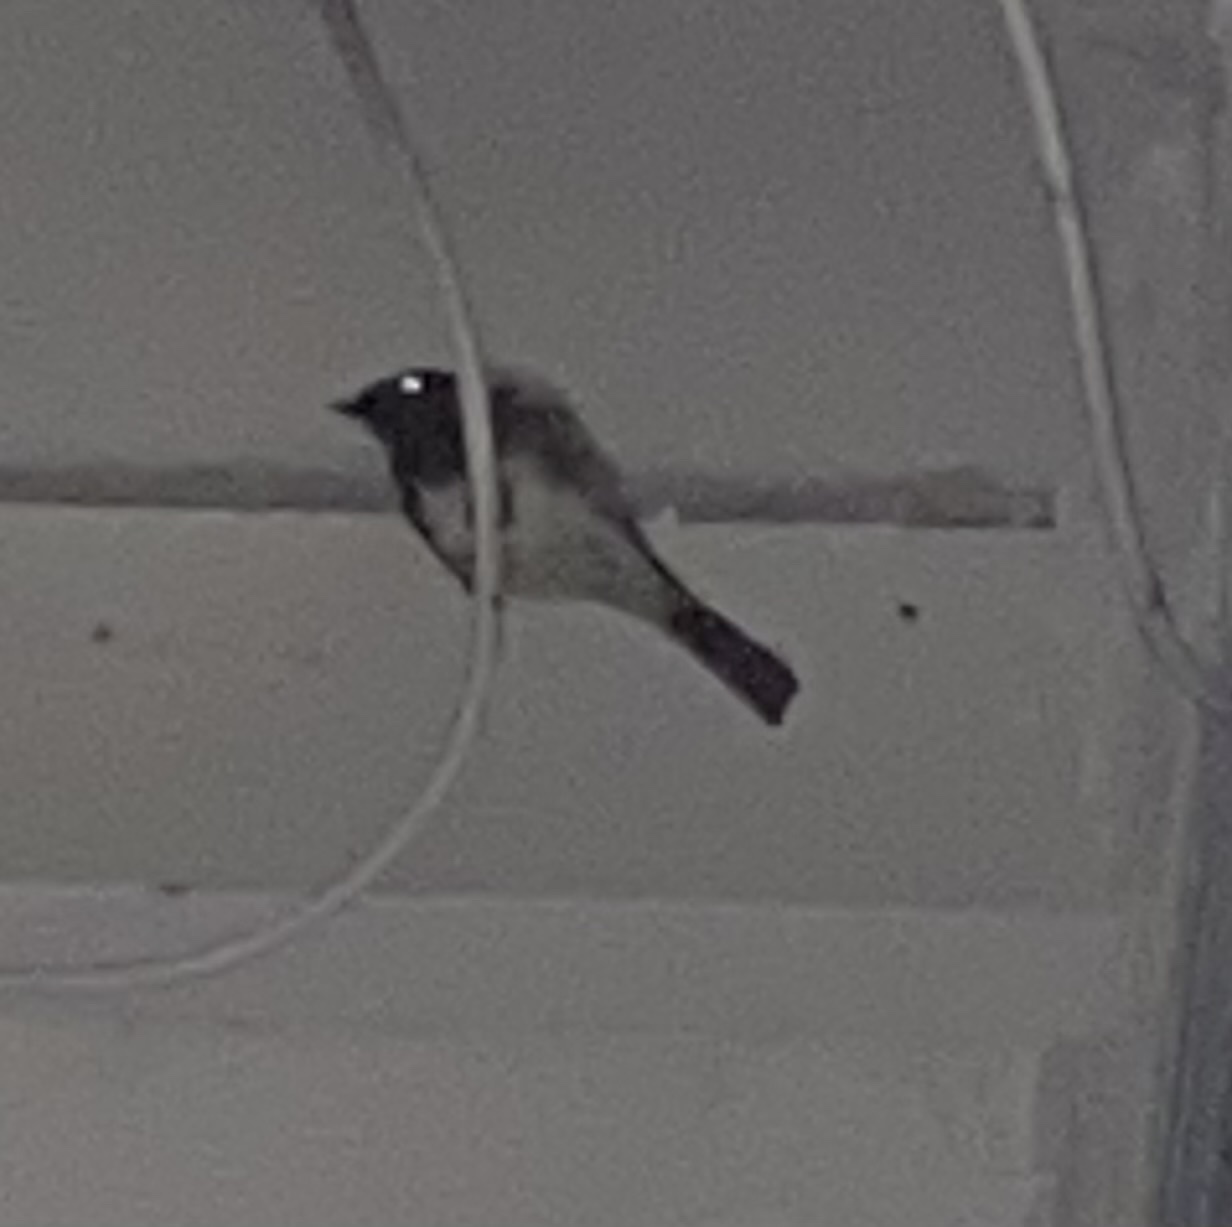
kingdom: Animalia
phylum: Chordata
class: Aves
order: Passeriformes
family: Tyrannidae
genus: Sayornis
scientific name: Sayornis nigricans
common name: Black phoebe
